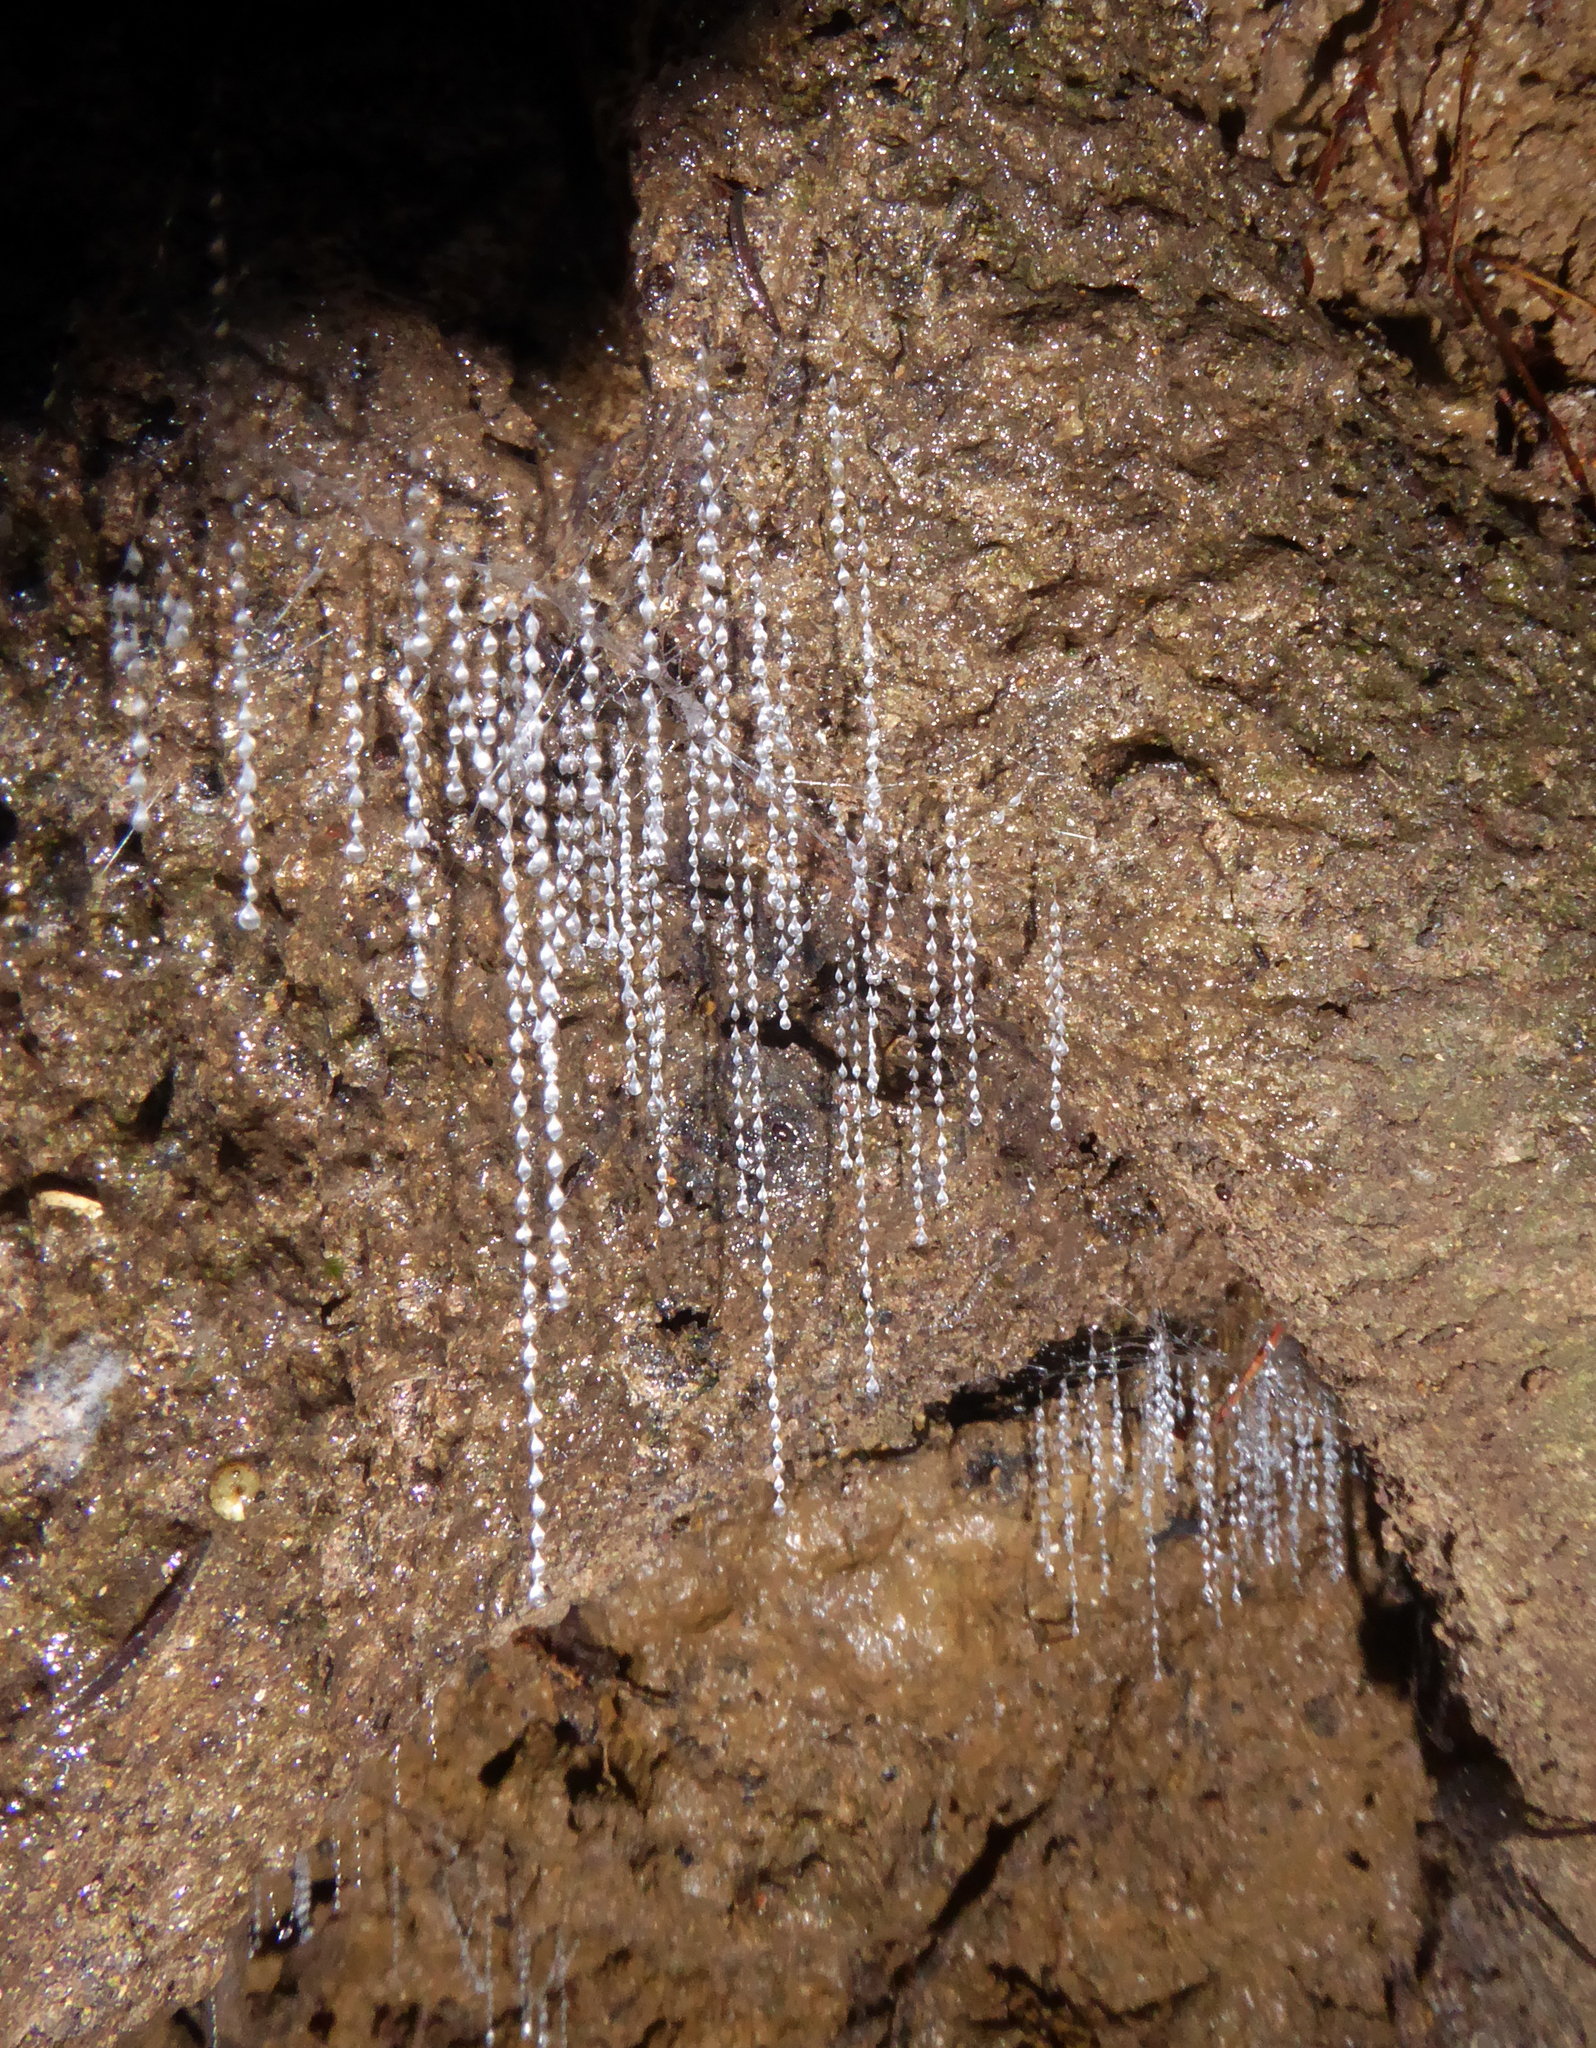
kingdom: Animalia
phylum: Arthropoda
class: Insecta
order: Diptera
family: Keroplatidae
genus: Arachnocampa
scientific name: Arachnocampa luminosa
